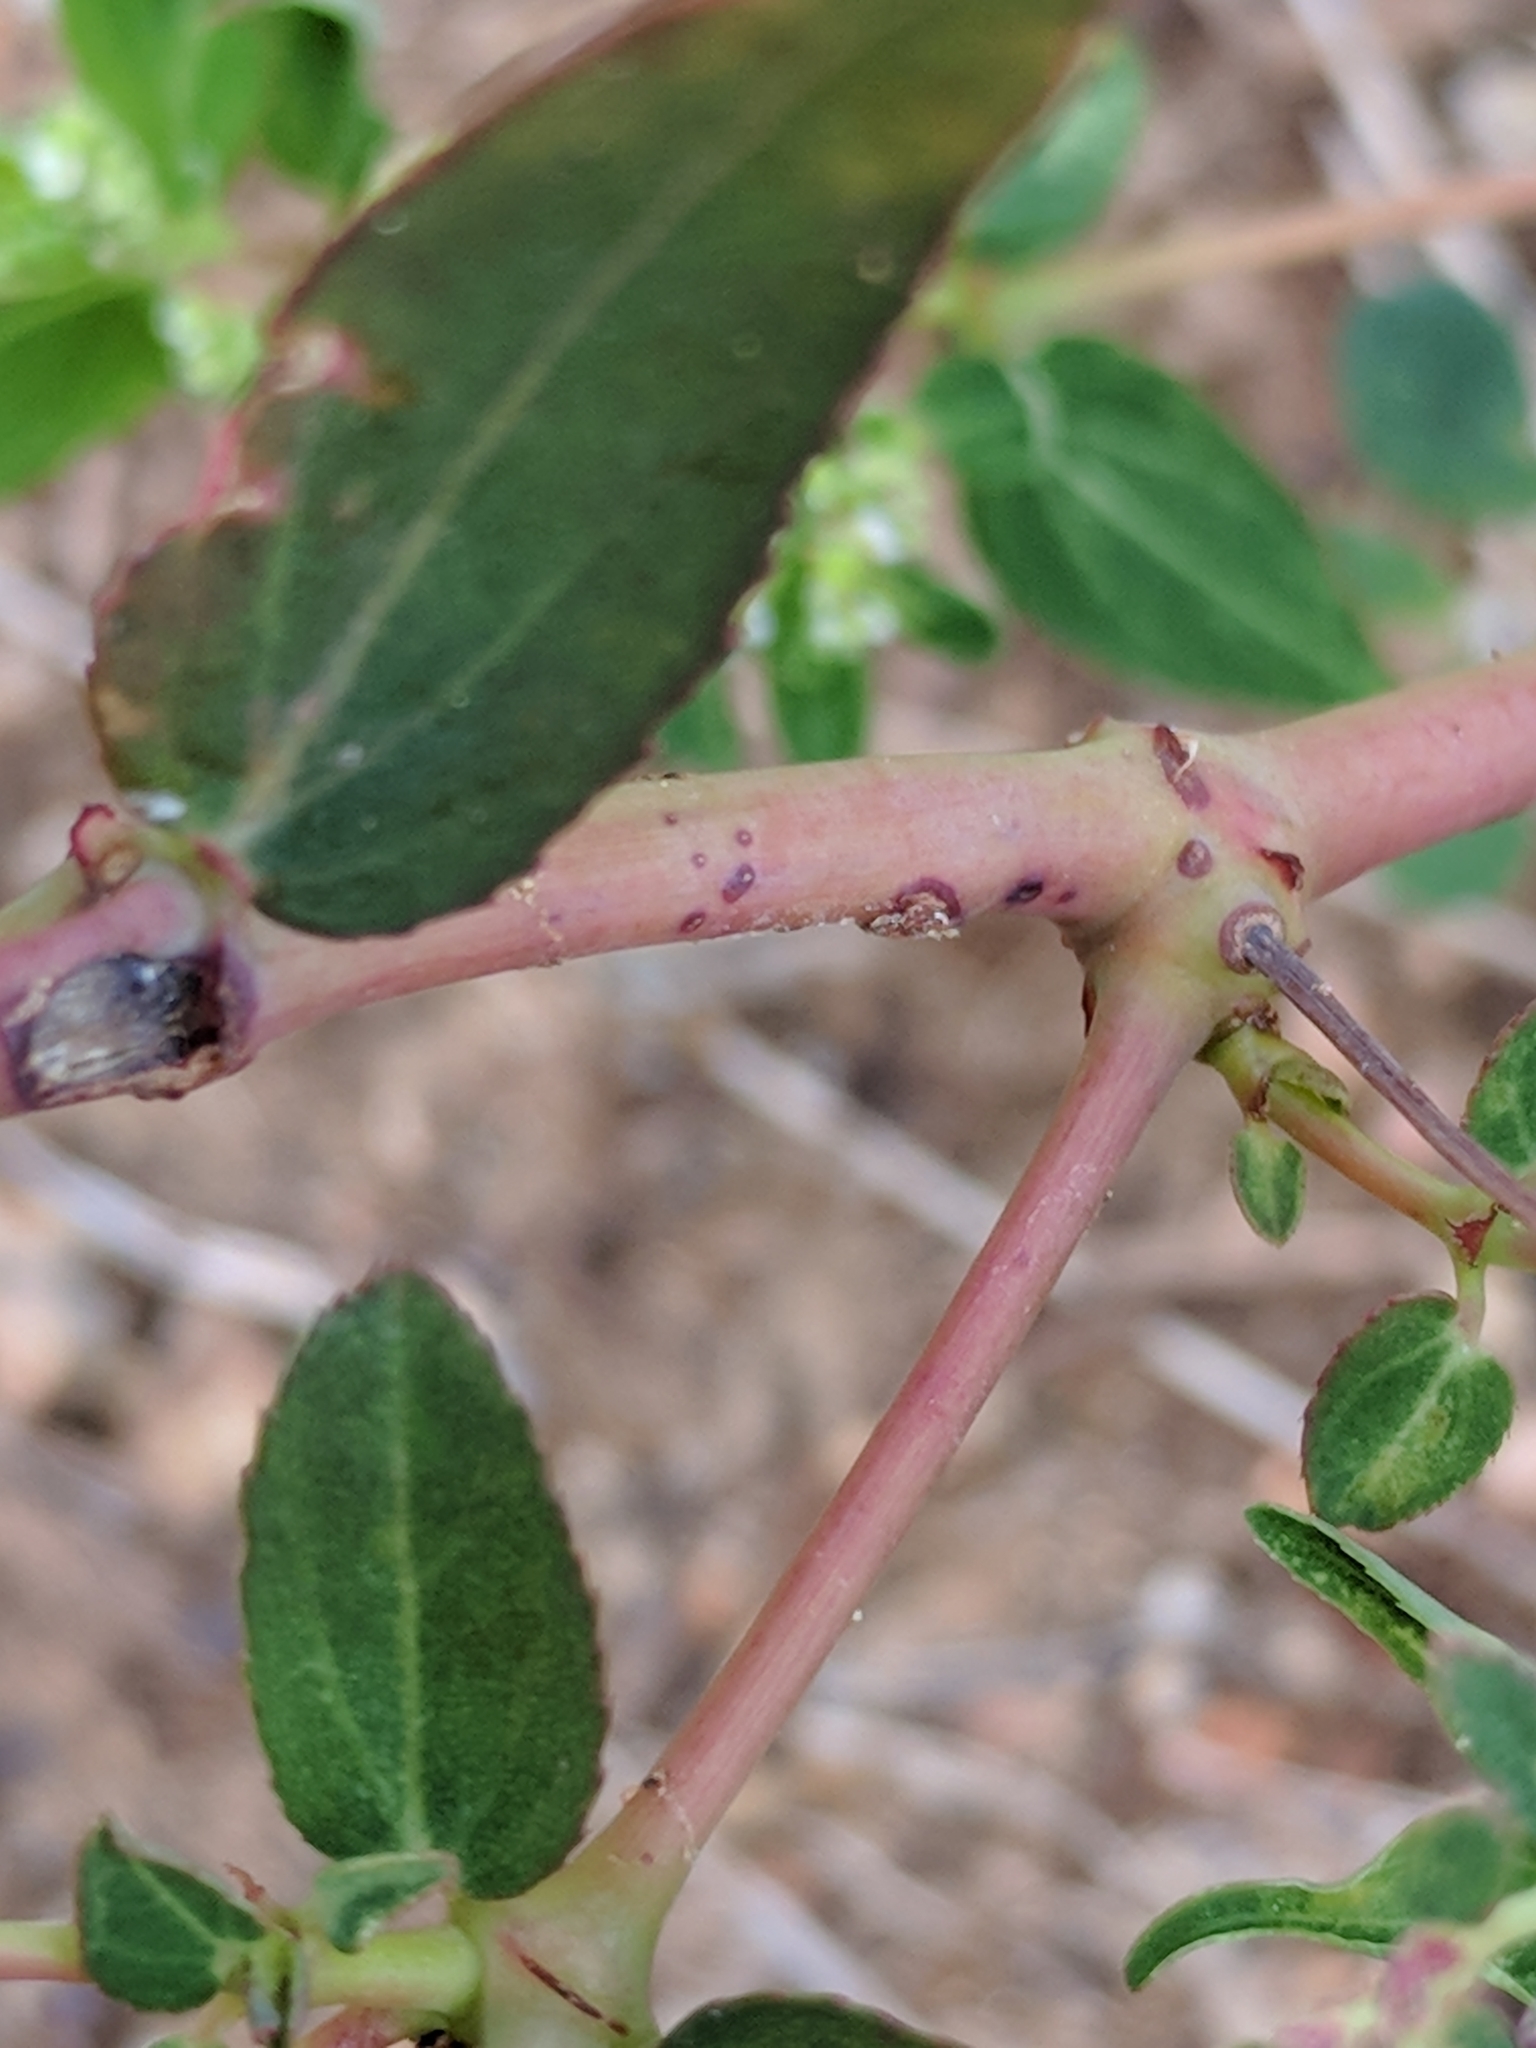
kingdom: Plantae
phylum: Tracheophyta
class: Magnoliopsida
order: Malpighiales
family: Euphorbiaceae
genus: Euphorbia
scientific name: Euphorbia hypericifolia
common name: Graceful sandmat
